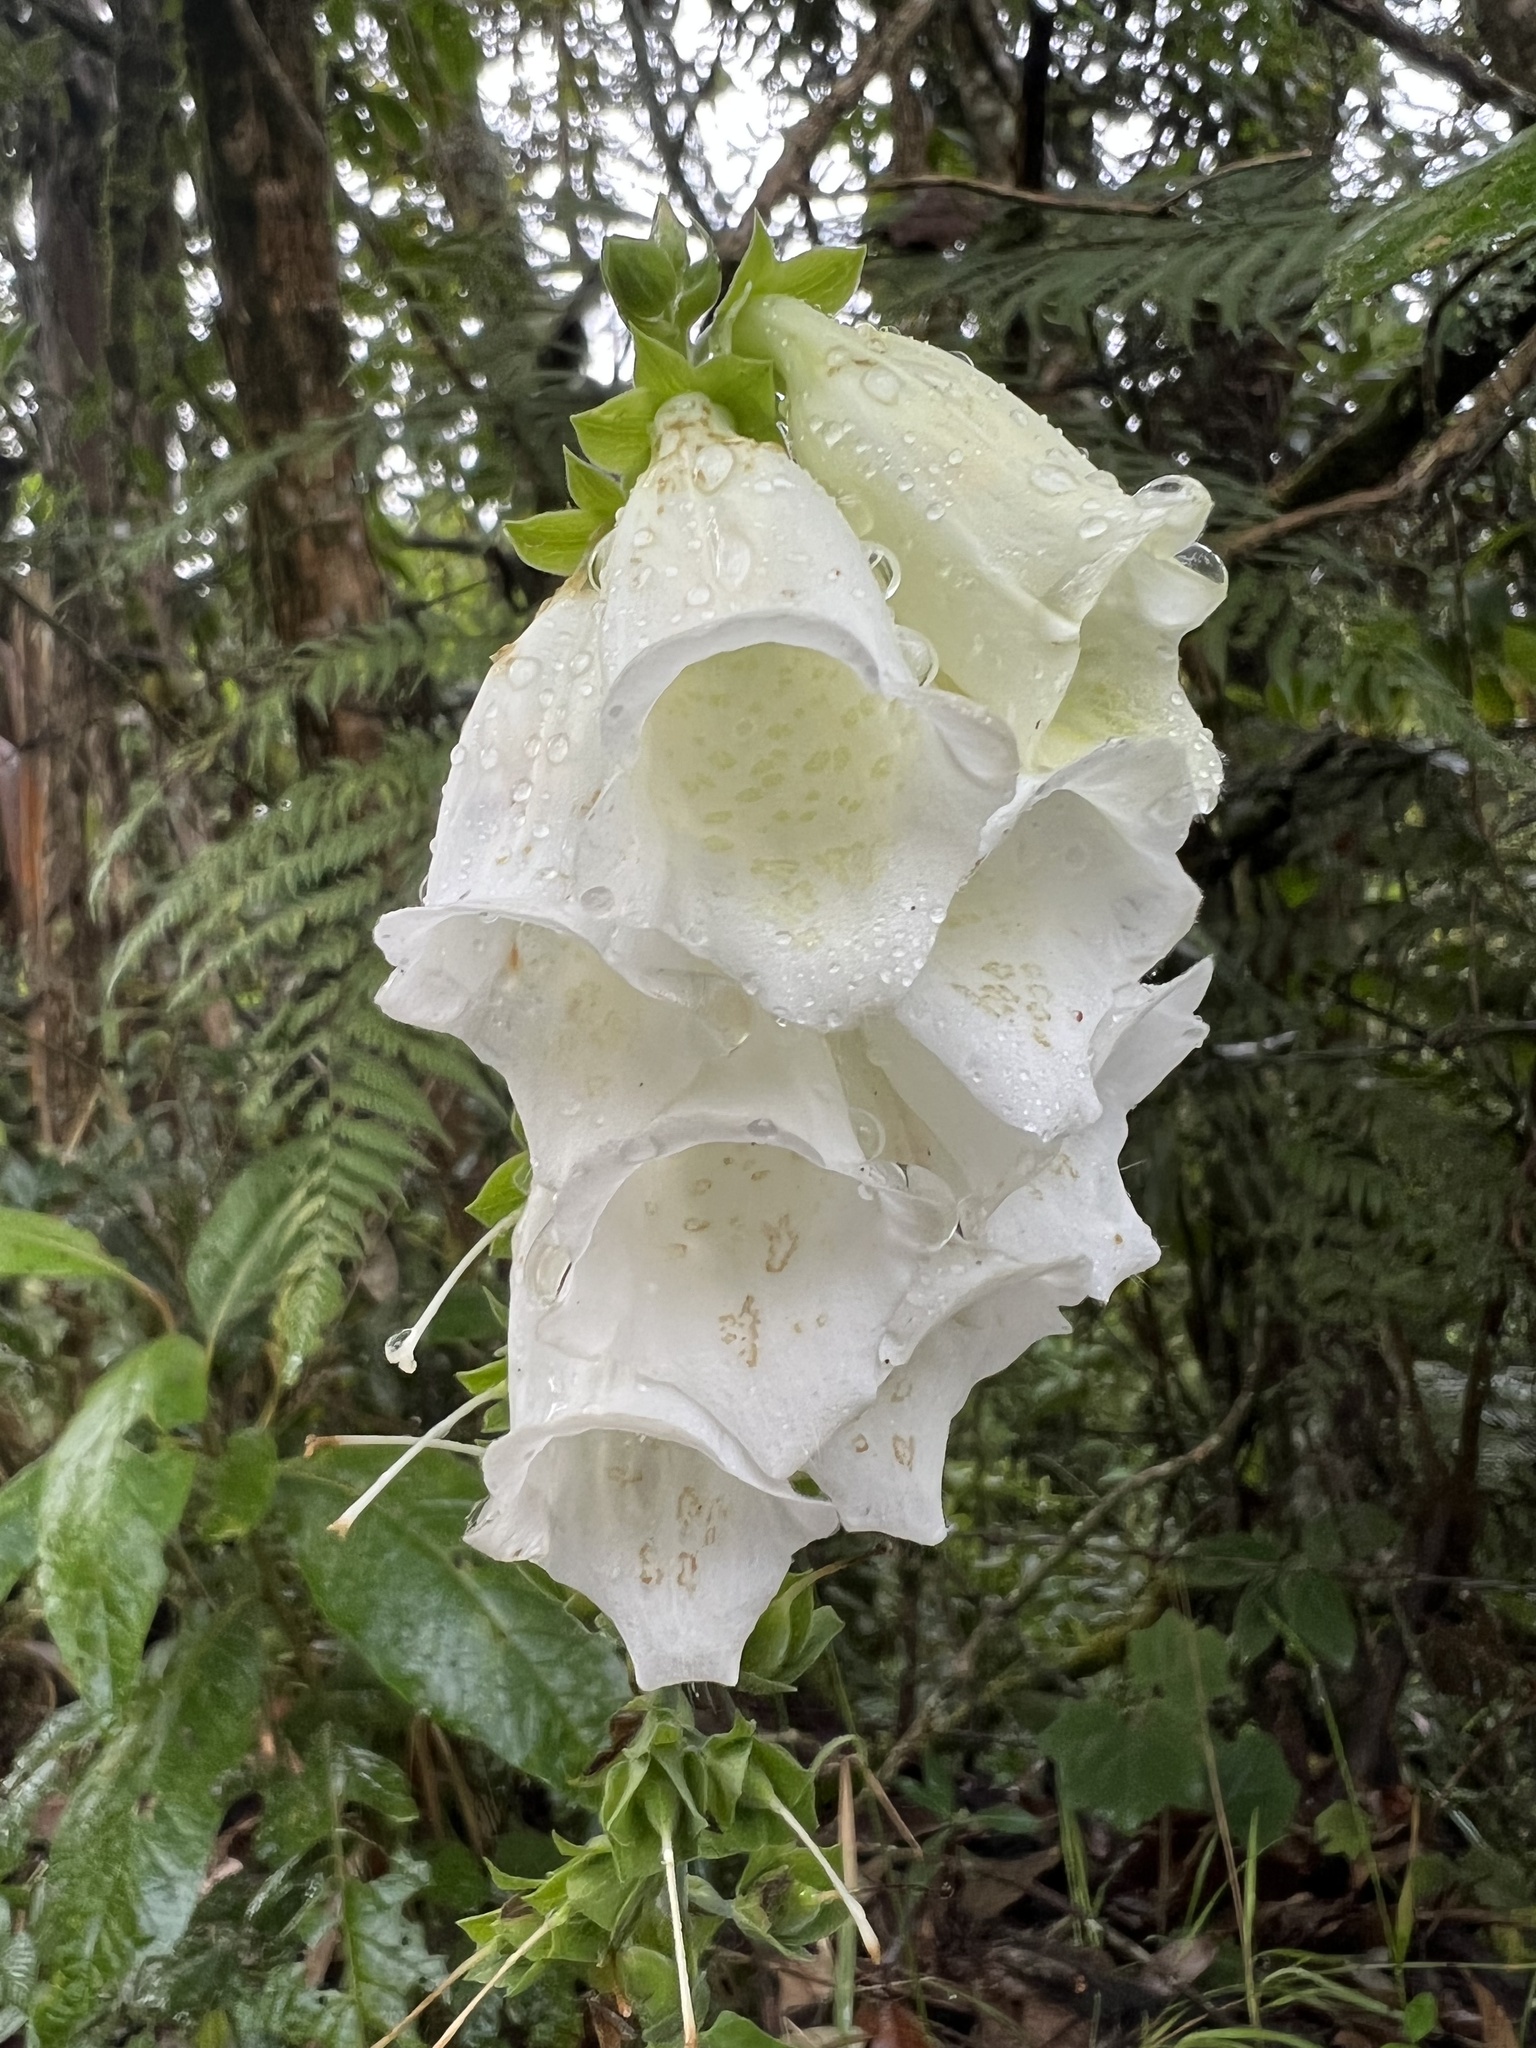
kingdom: Plantae
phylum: Tracheophyta
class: Magnoliopsida
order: Lamiales
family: Plantaginaceae
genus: Digitalis
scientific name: Digitalis purpurea
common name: Foxglove
